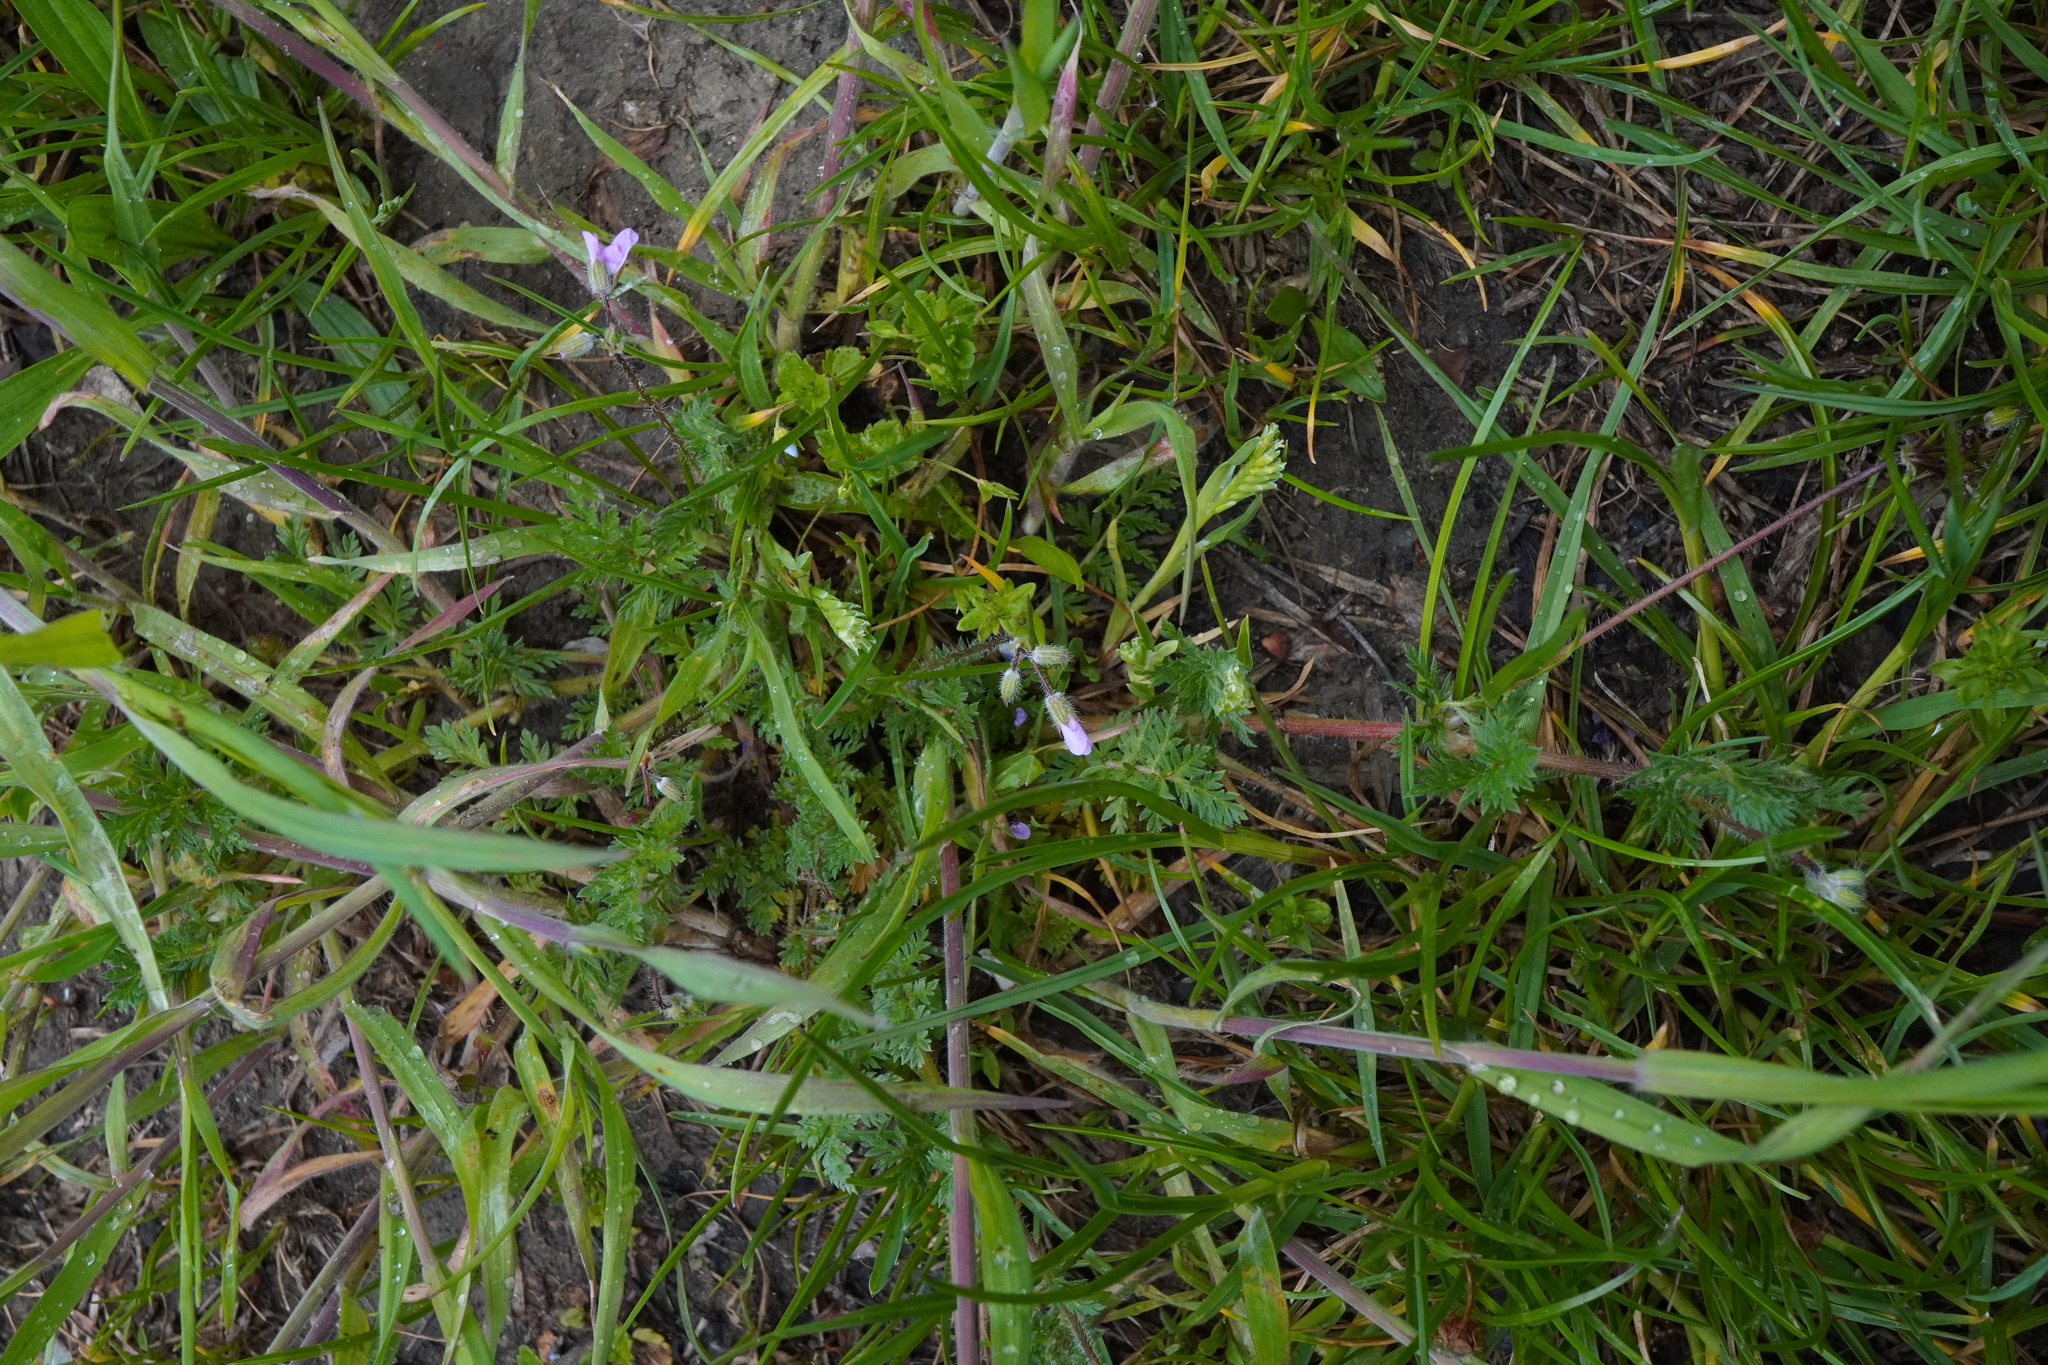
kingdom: Plantae
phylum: Tracheophyta
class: Magnoliopsida
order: Geraniales
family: Geraniaceae
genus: Erodium
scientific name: Erodium cicutarium
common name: Common stork's-bill
